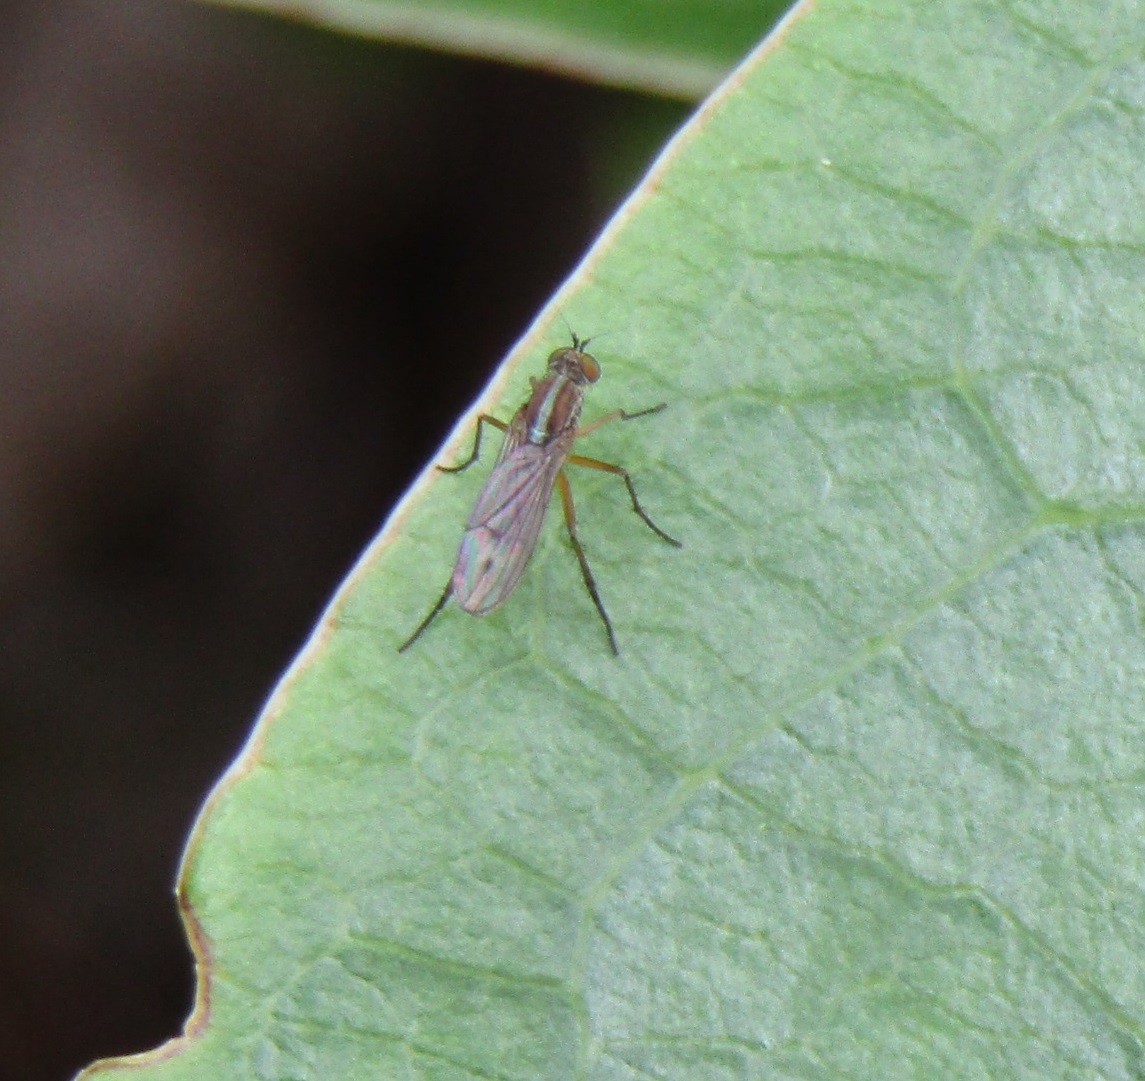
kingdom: Animalia
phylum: Arthropoda
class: Insecta
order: Diptera
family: Dolichopodidae
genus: Tetrachaetus
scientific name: Tetrachaetus bipunctatus
